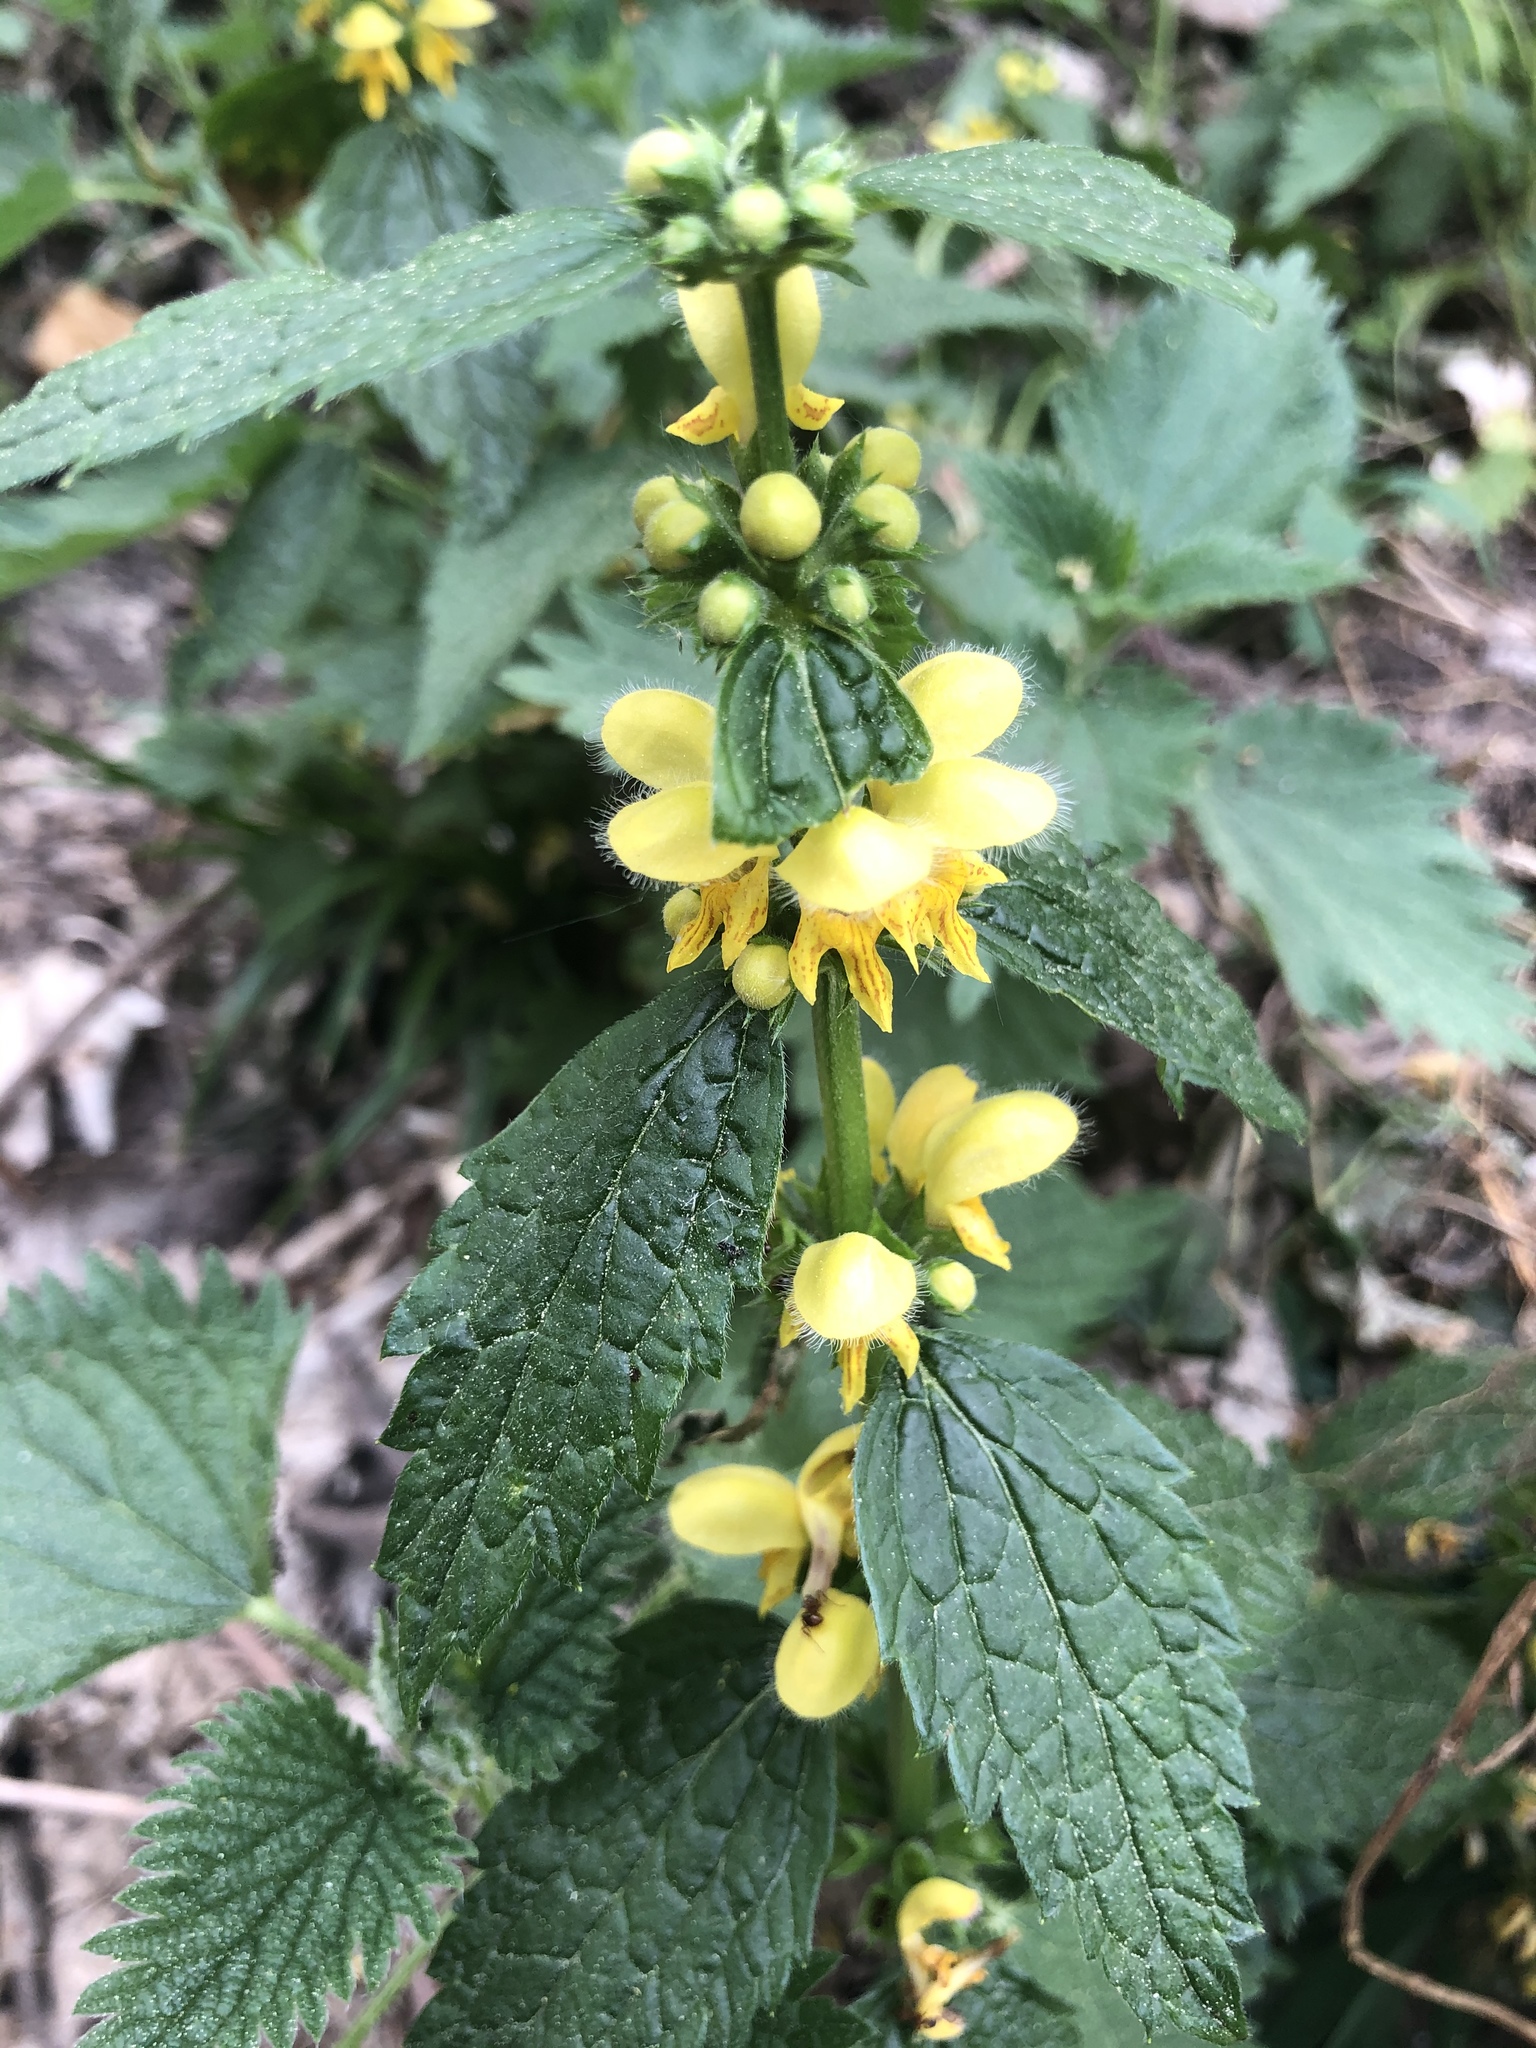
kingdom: Plantae
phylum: Tracheophyta
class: Magnoliopsida
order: Lamiales
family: Lamiaceae
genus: Lamium
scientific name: Lamium galeobdolon
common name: Yellow archangel
